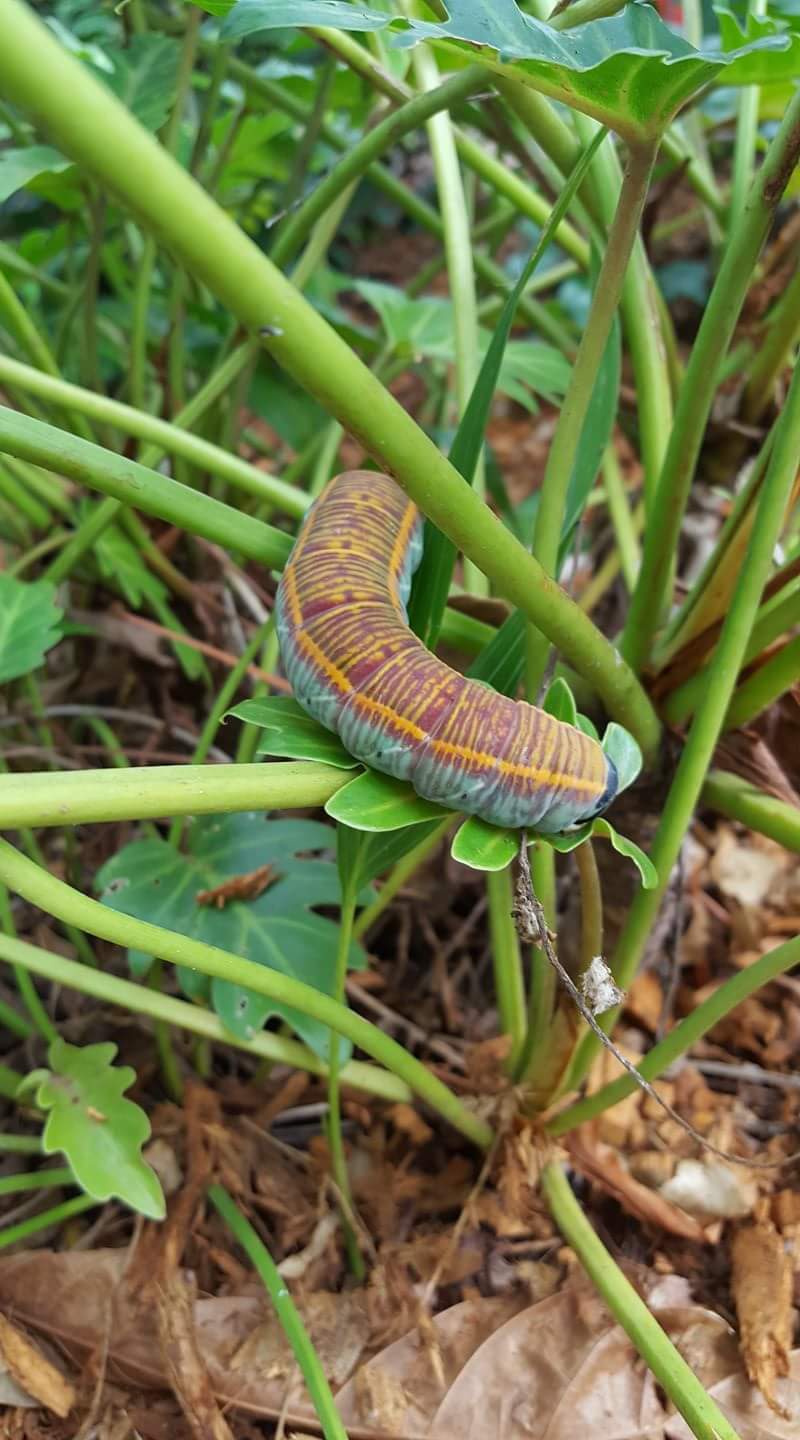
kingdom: Animalia
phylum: Arthropoda
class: Insecta
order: Lepidoptera
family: Sphingidae
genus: Pachylia
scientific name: Pachylia ficus
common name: Fig sphinx
